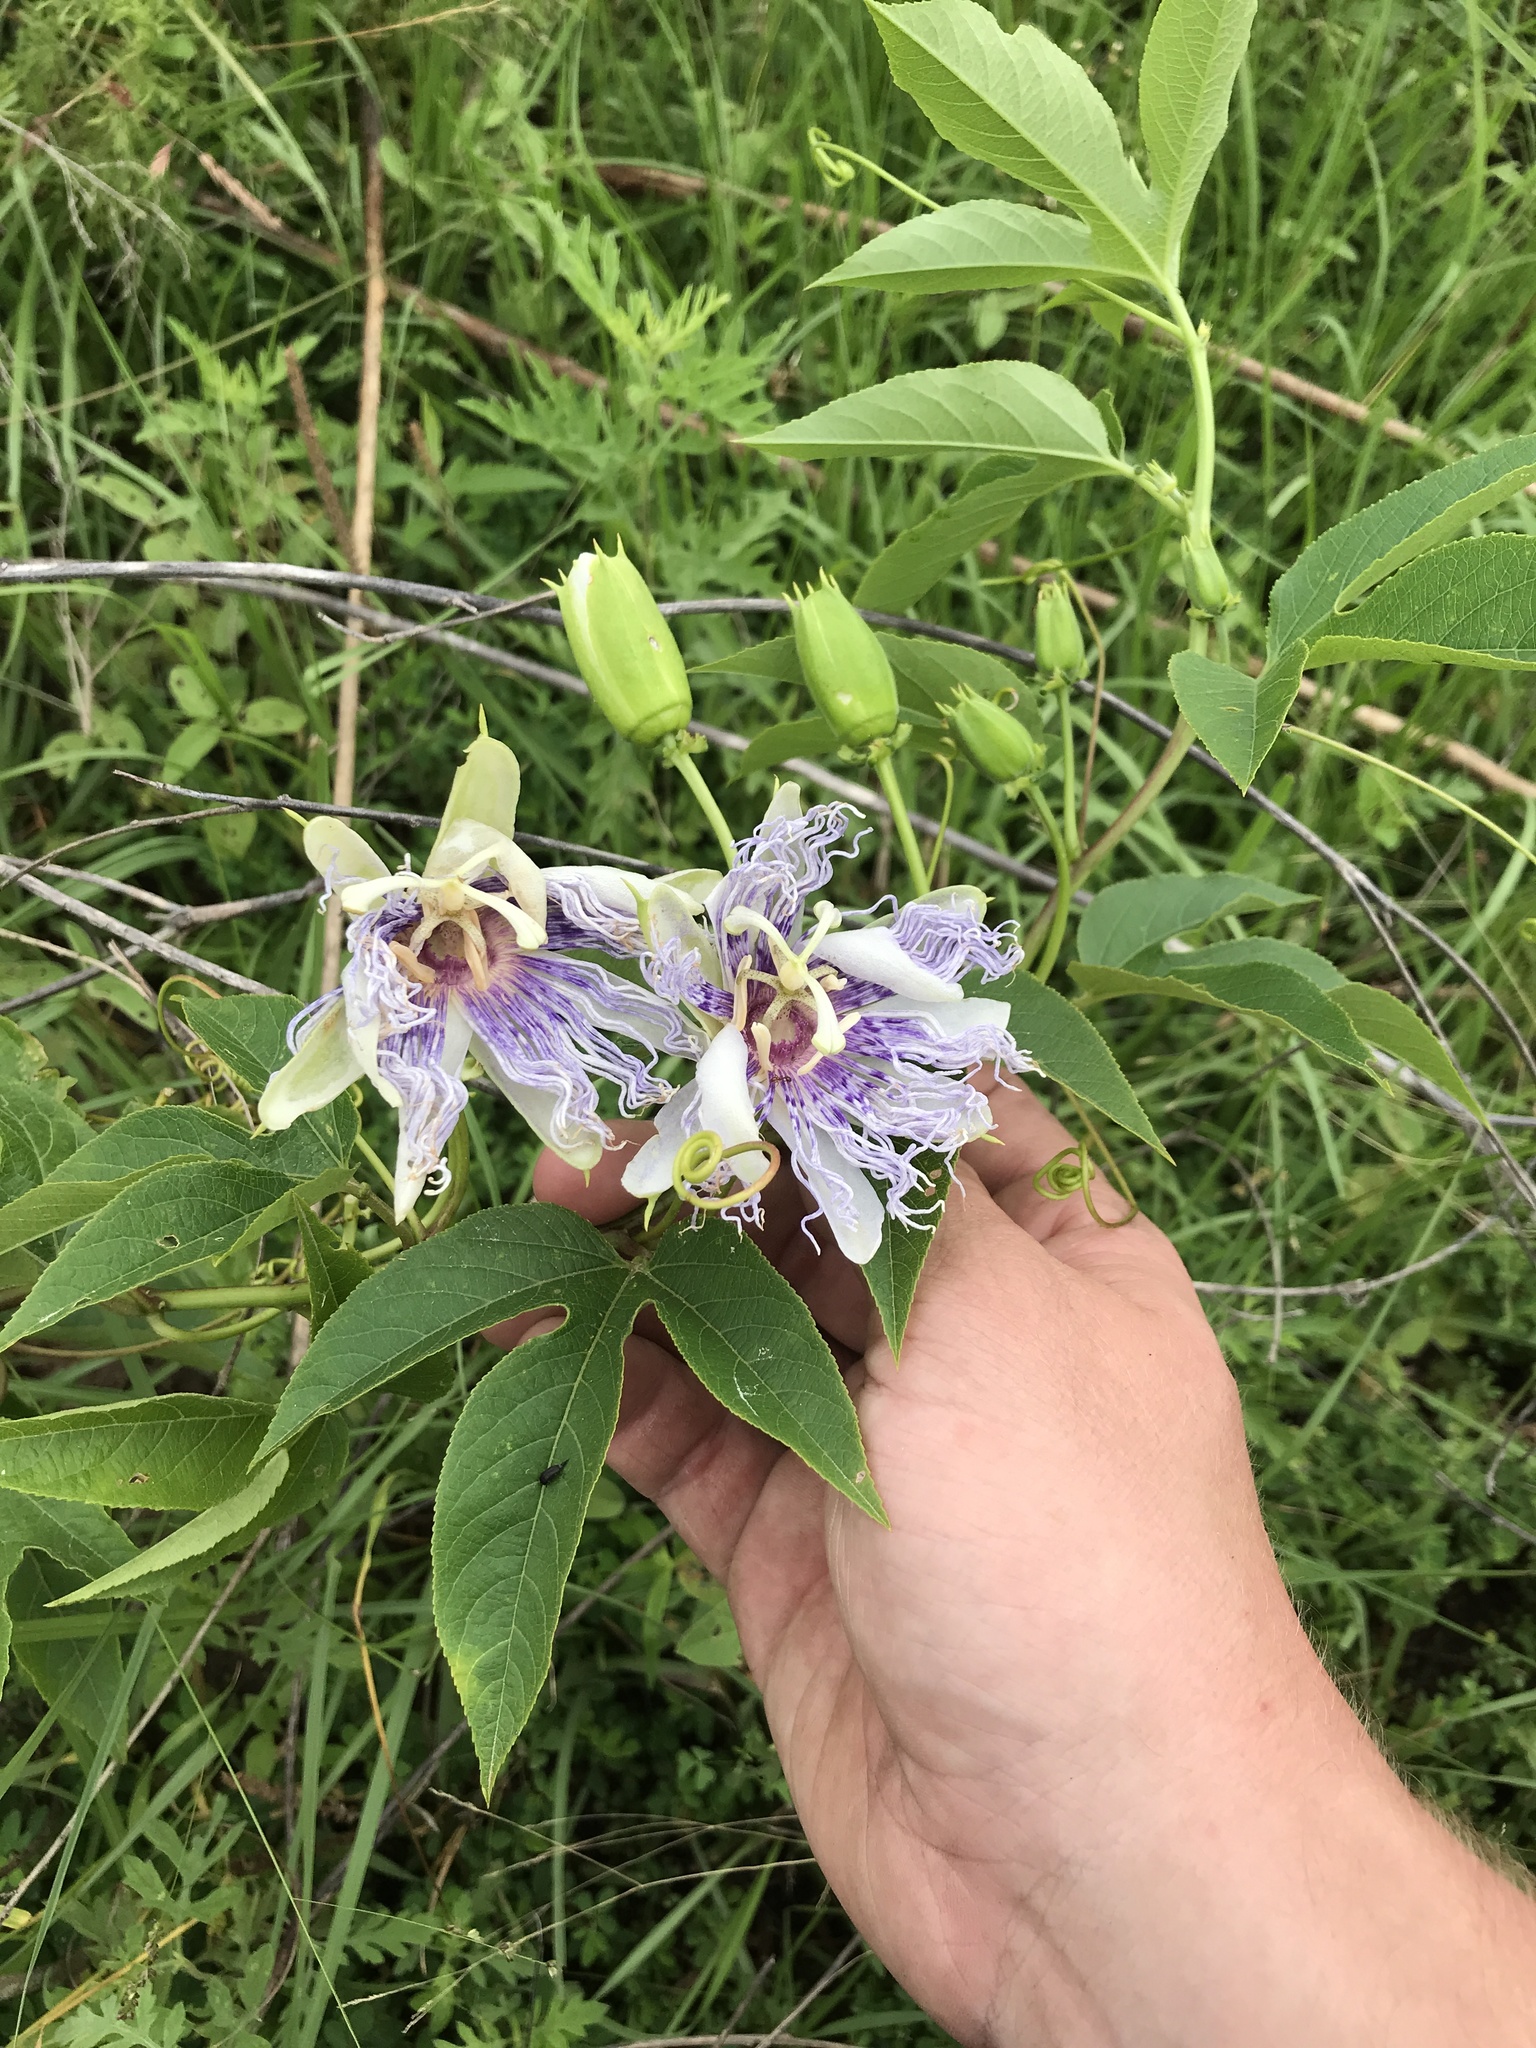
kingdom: Plantae
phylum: Tracheophyta
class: Magnoliopsida
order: Malpighiales
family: Passifloraceae
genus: Passiflora
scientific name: Passiflora incarnata
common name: Apricot-vine
